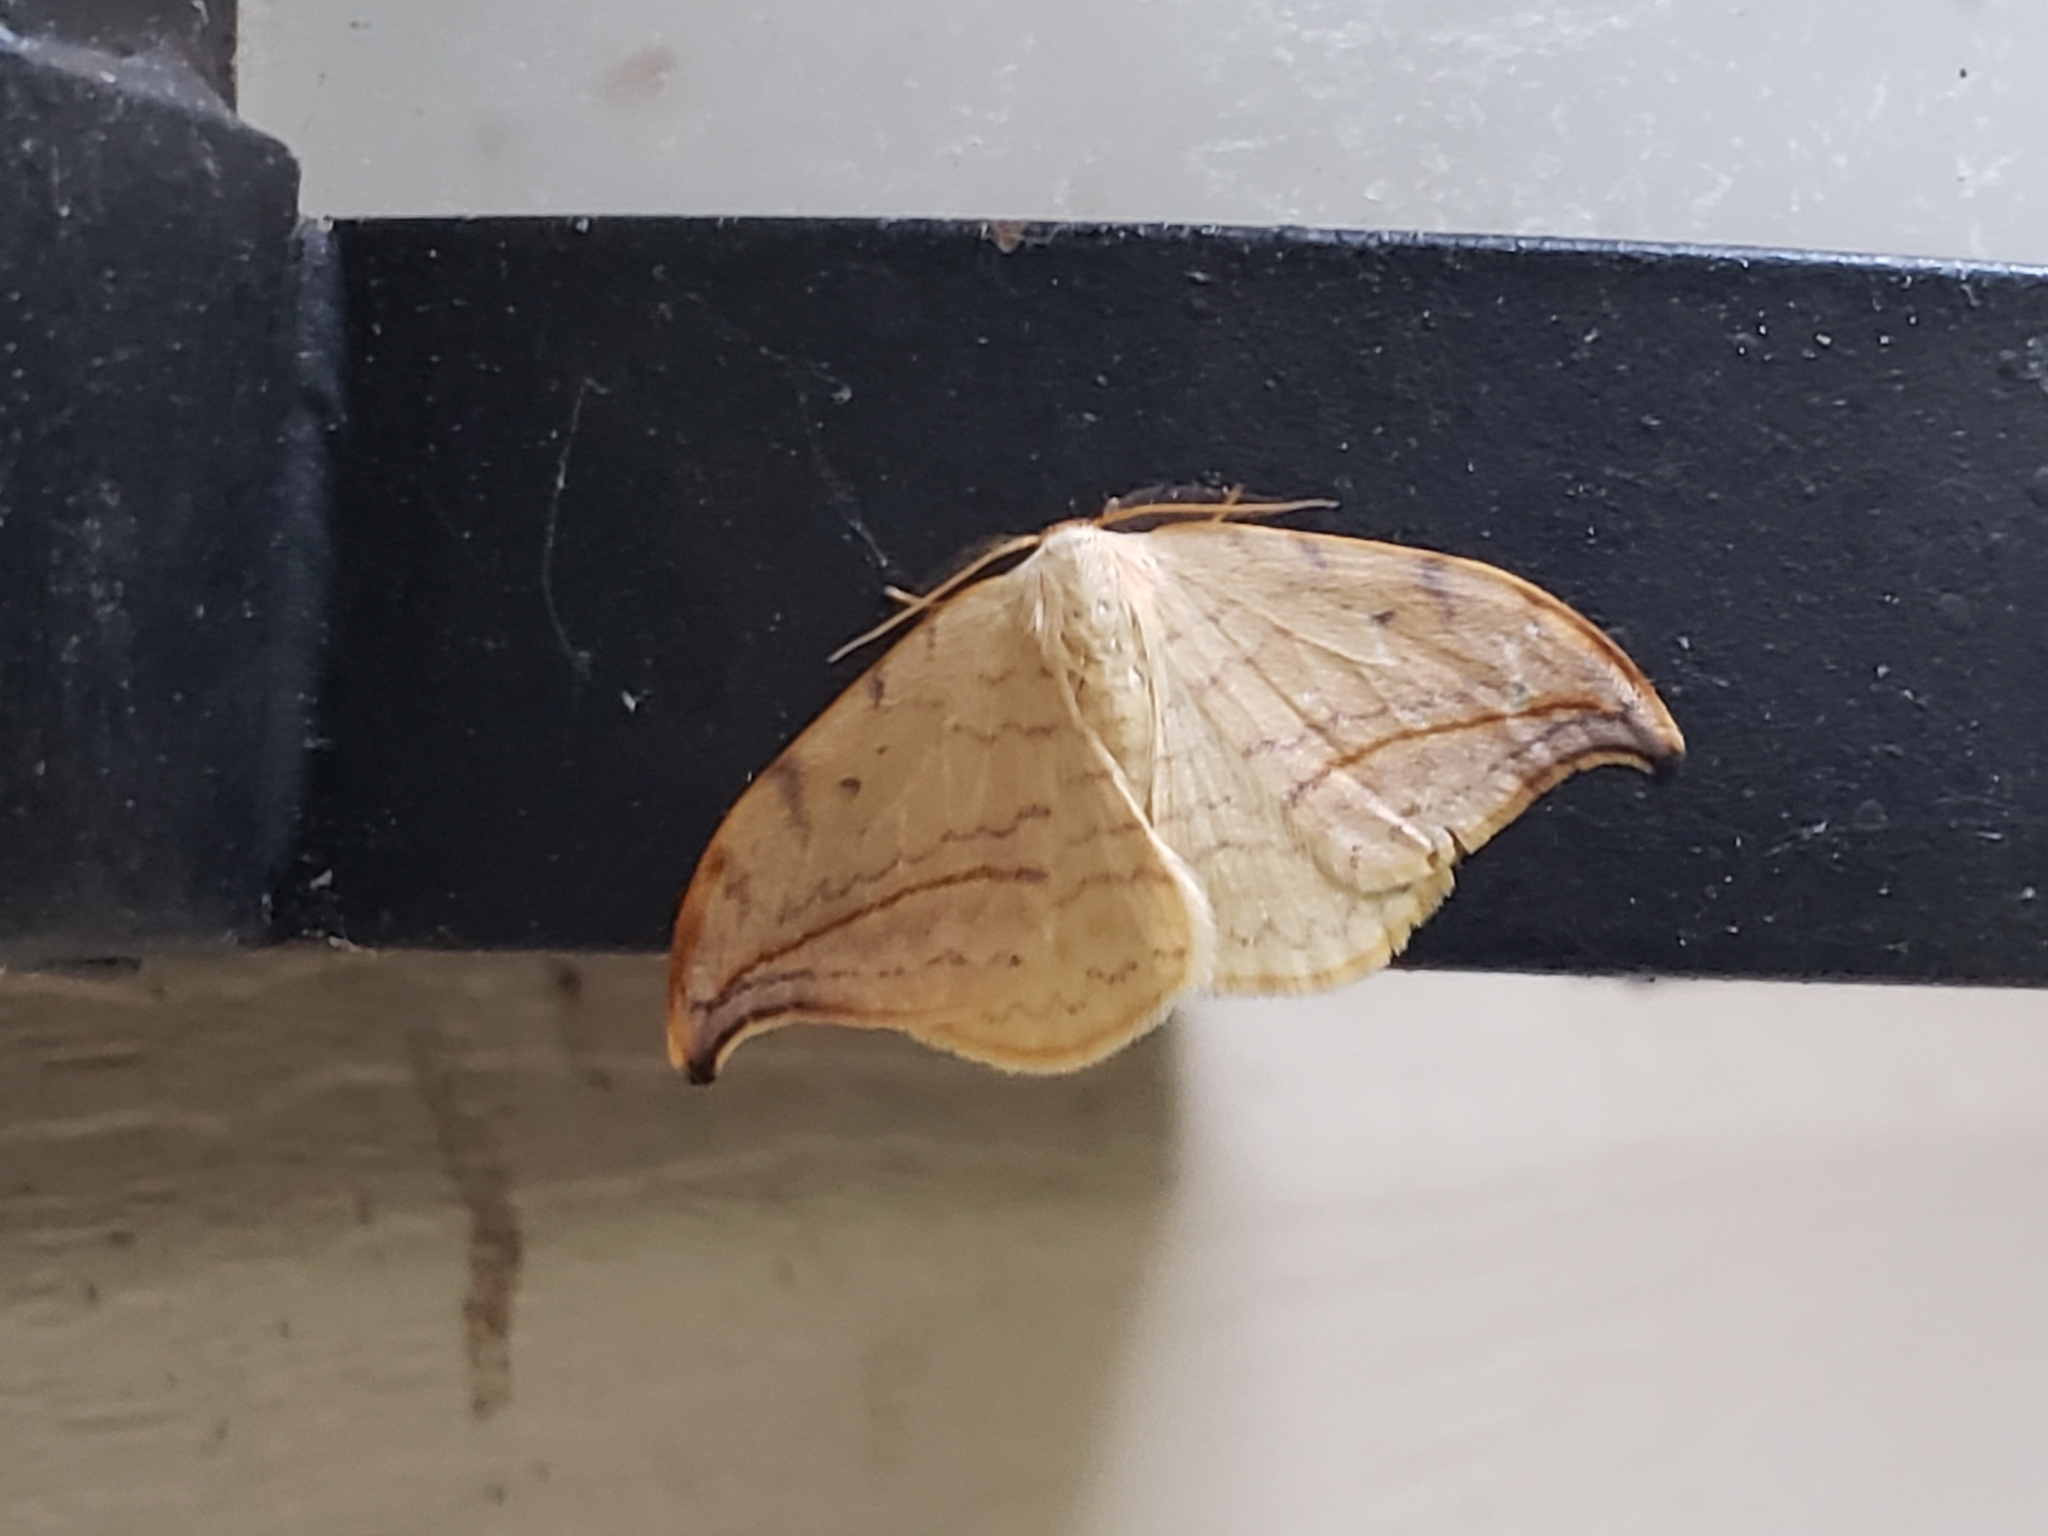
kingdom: Animalia
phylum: Arthropoda
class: Insecta
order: Lepidoptera
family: Drepanidae
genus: Drepana
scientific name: Drepana arcuata
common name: Arched hooktip moth
